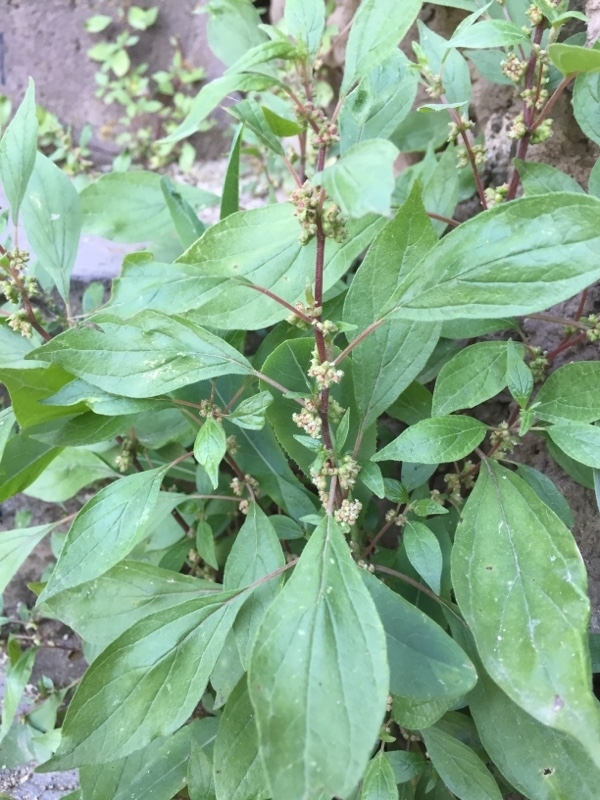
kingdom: Plantae
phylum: Tracheophyta
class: Magnoliopsida
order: Rosales
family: Urticaceae
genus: Parietaria
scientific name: Parietaria officinalis
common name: Eastern pellitory-of-the-wall
